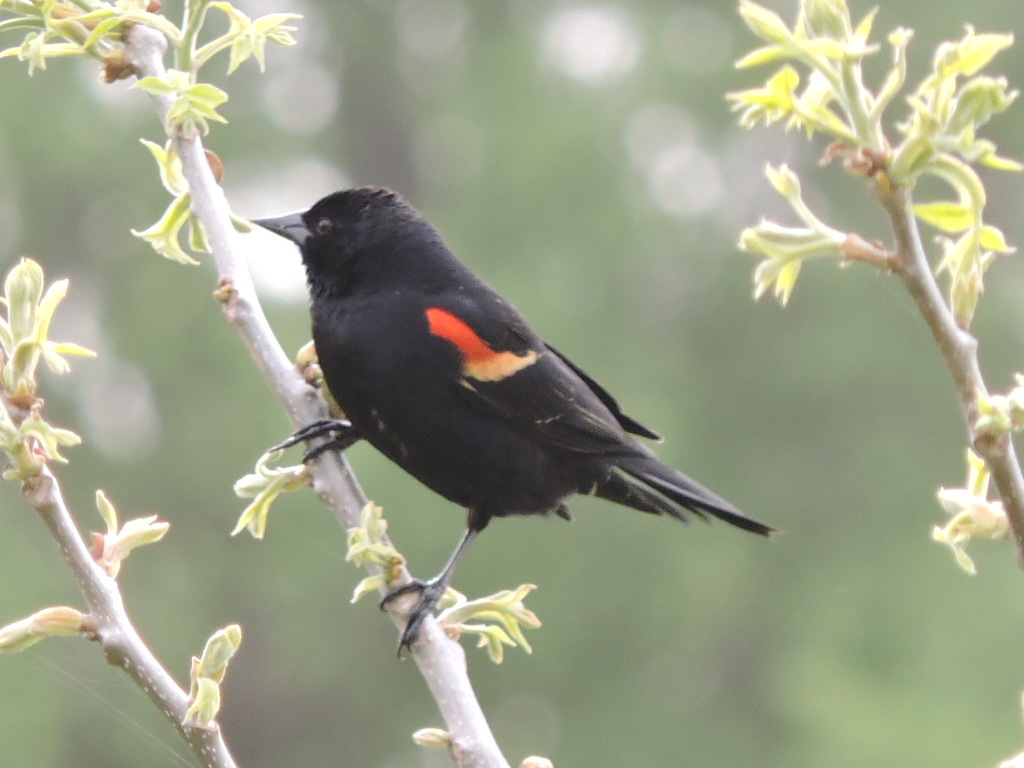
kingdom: Animalia
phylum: Chordata
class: Aves
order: Passeriformes
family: Icteridae
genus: Agelaius
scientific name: Agelaius phoeniceus
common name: Red-winged blackbird
